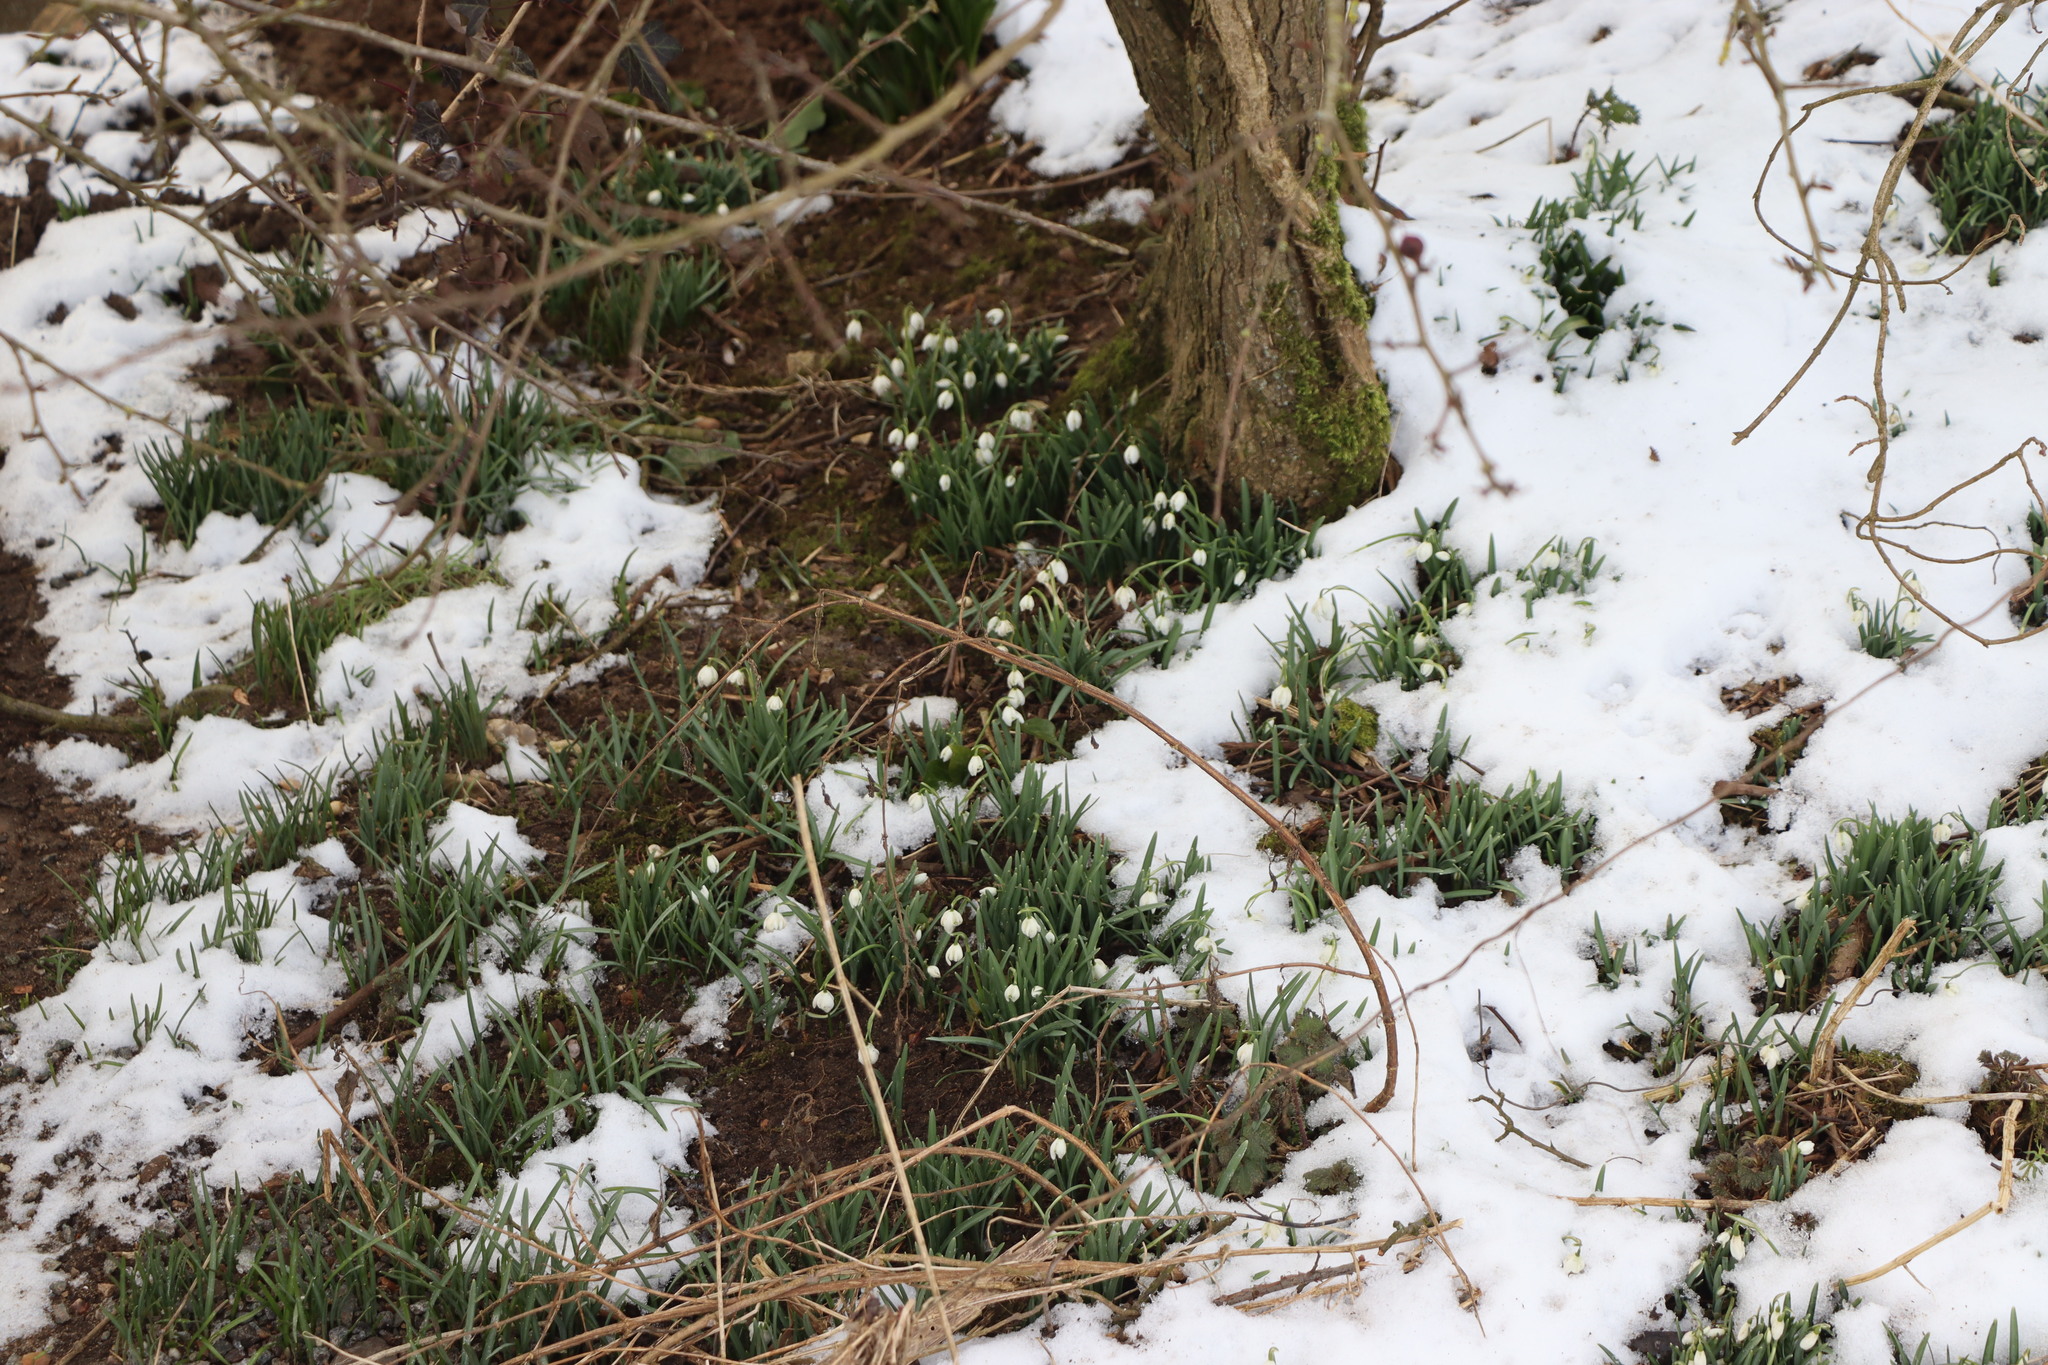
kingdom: Plantae
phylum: Tracheophyta
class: Liliopsida
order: Asparagales
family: Amaryllidaceae
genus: Galanthus
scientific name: Galanthus nivalis
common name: Snowdrop
